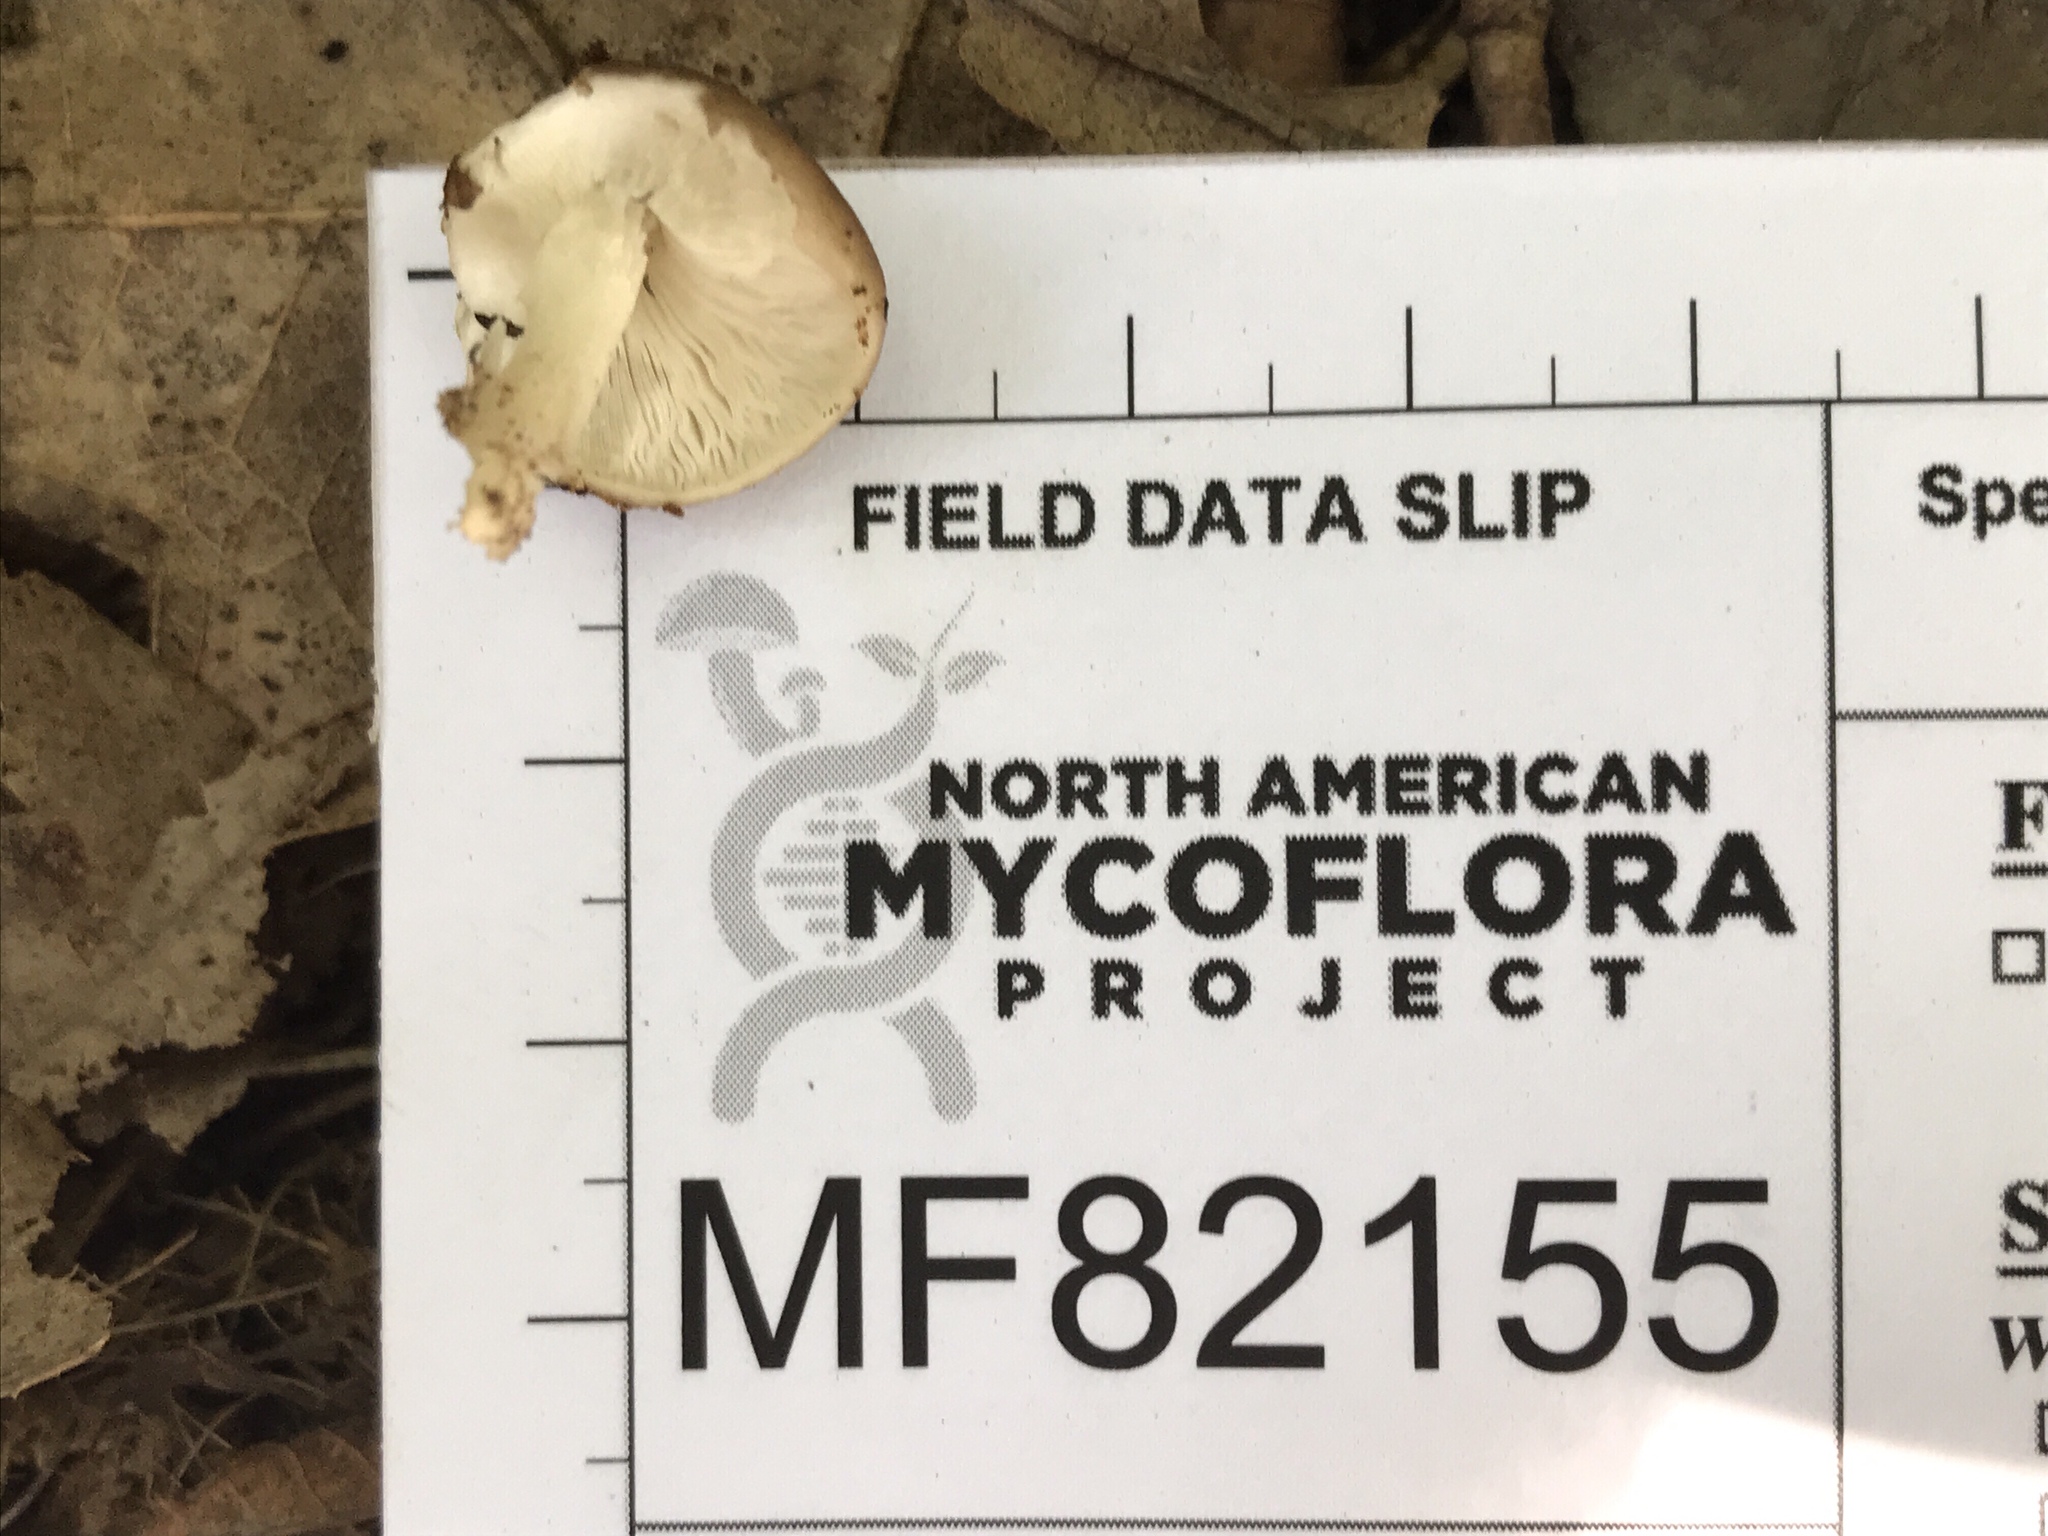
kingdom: Fungi
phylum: Basidiomycota
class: Agaricomycetes
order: Agaricales
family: Pluteaceae
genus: Pluteus
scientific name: Pluteus petasatus
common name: Scaly shield
